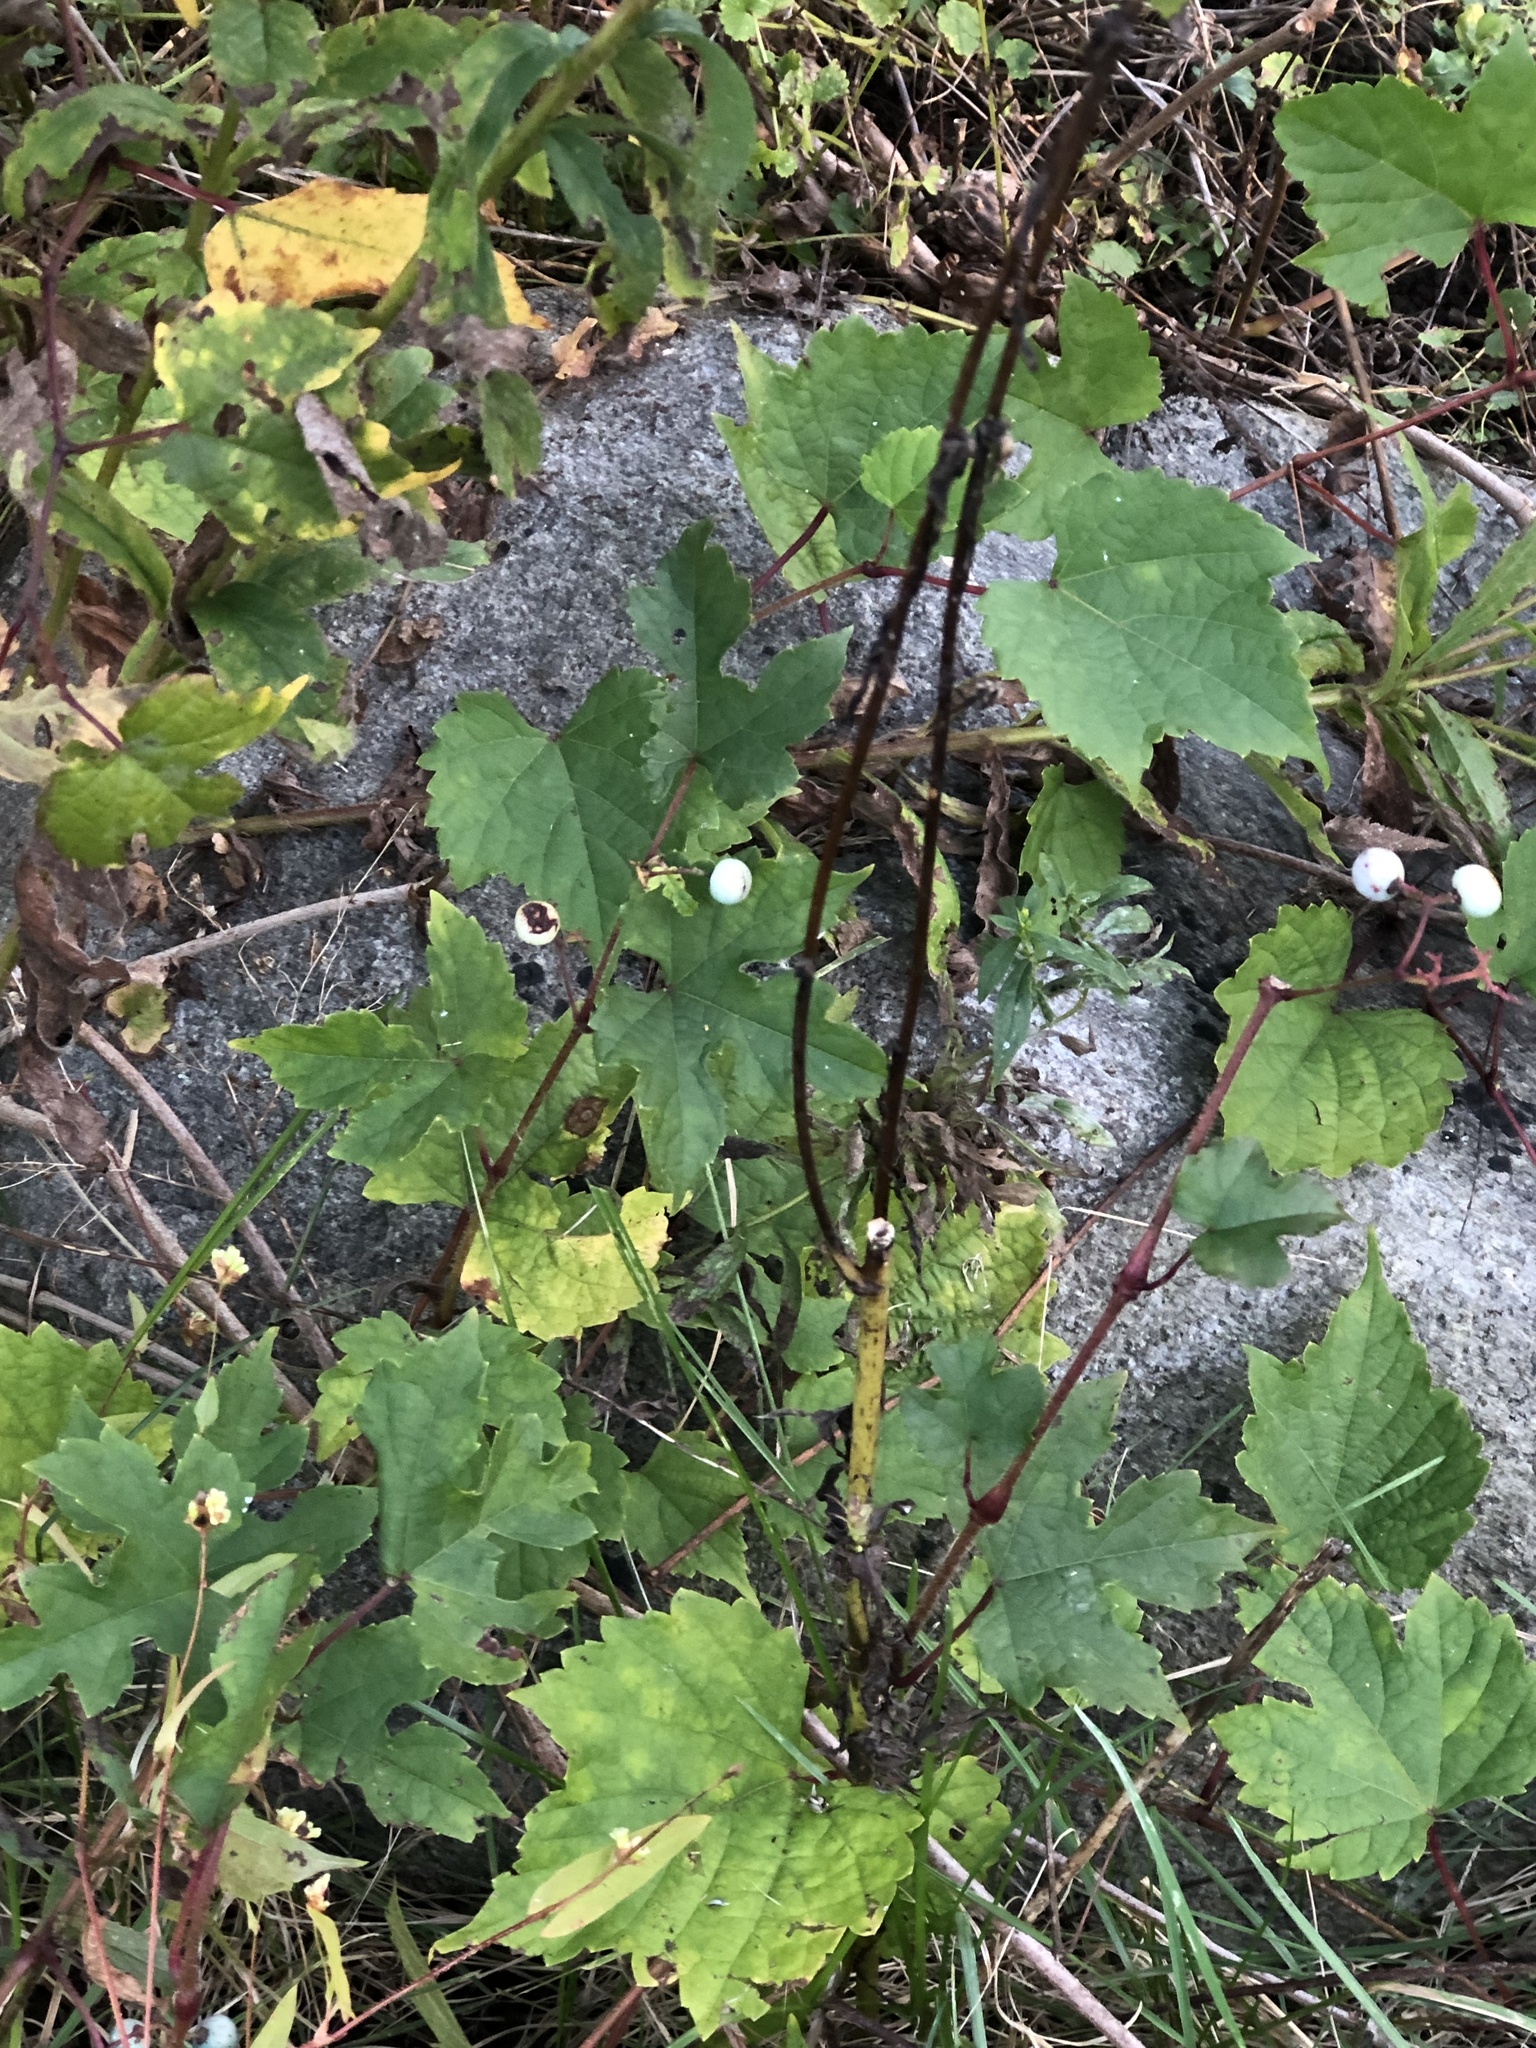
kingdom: Plantae
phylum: Tracheophyta
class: Magnoliopsida
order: Vitales
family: Vitaceae
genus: Ampelopsis
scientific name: Ampelopsis glandulosa
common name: Amur peppervine
